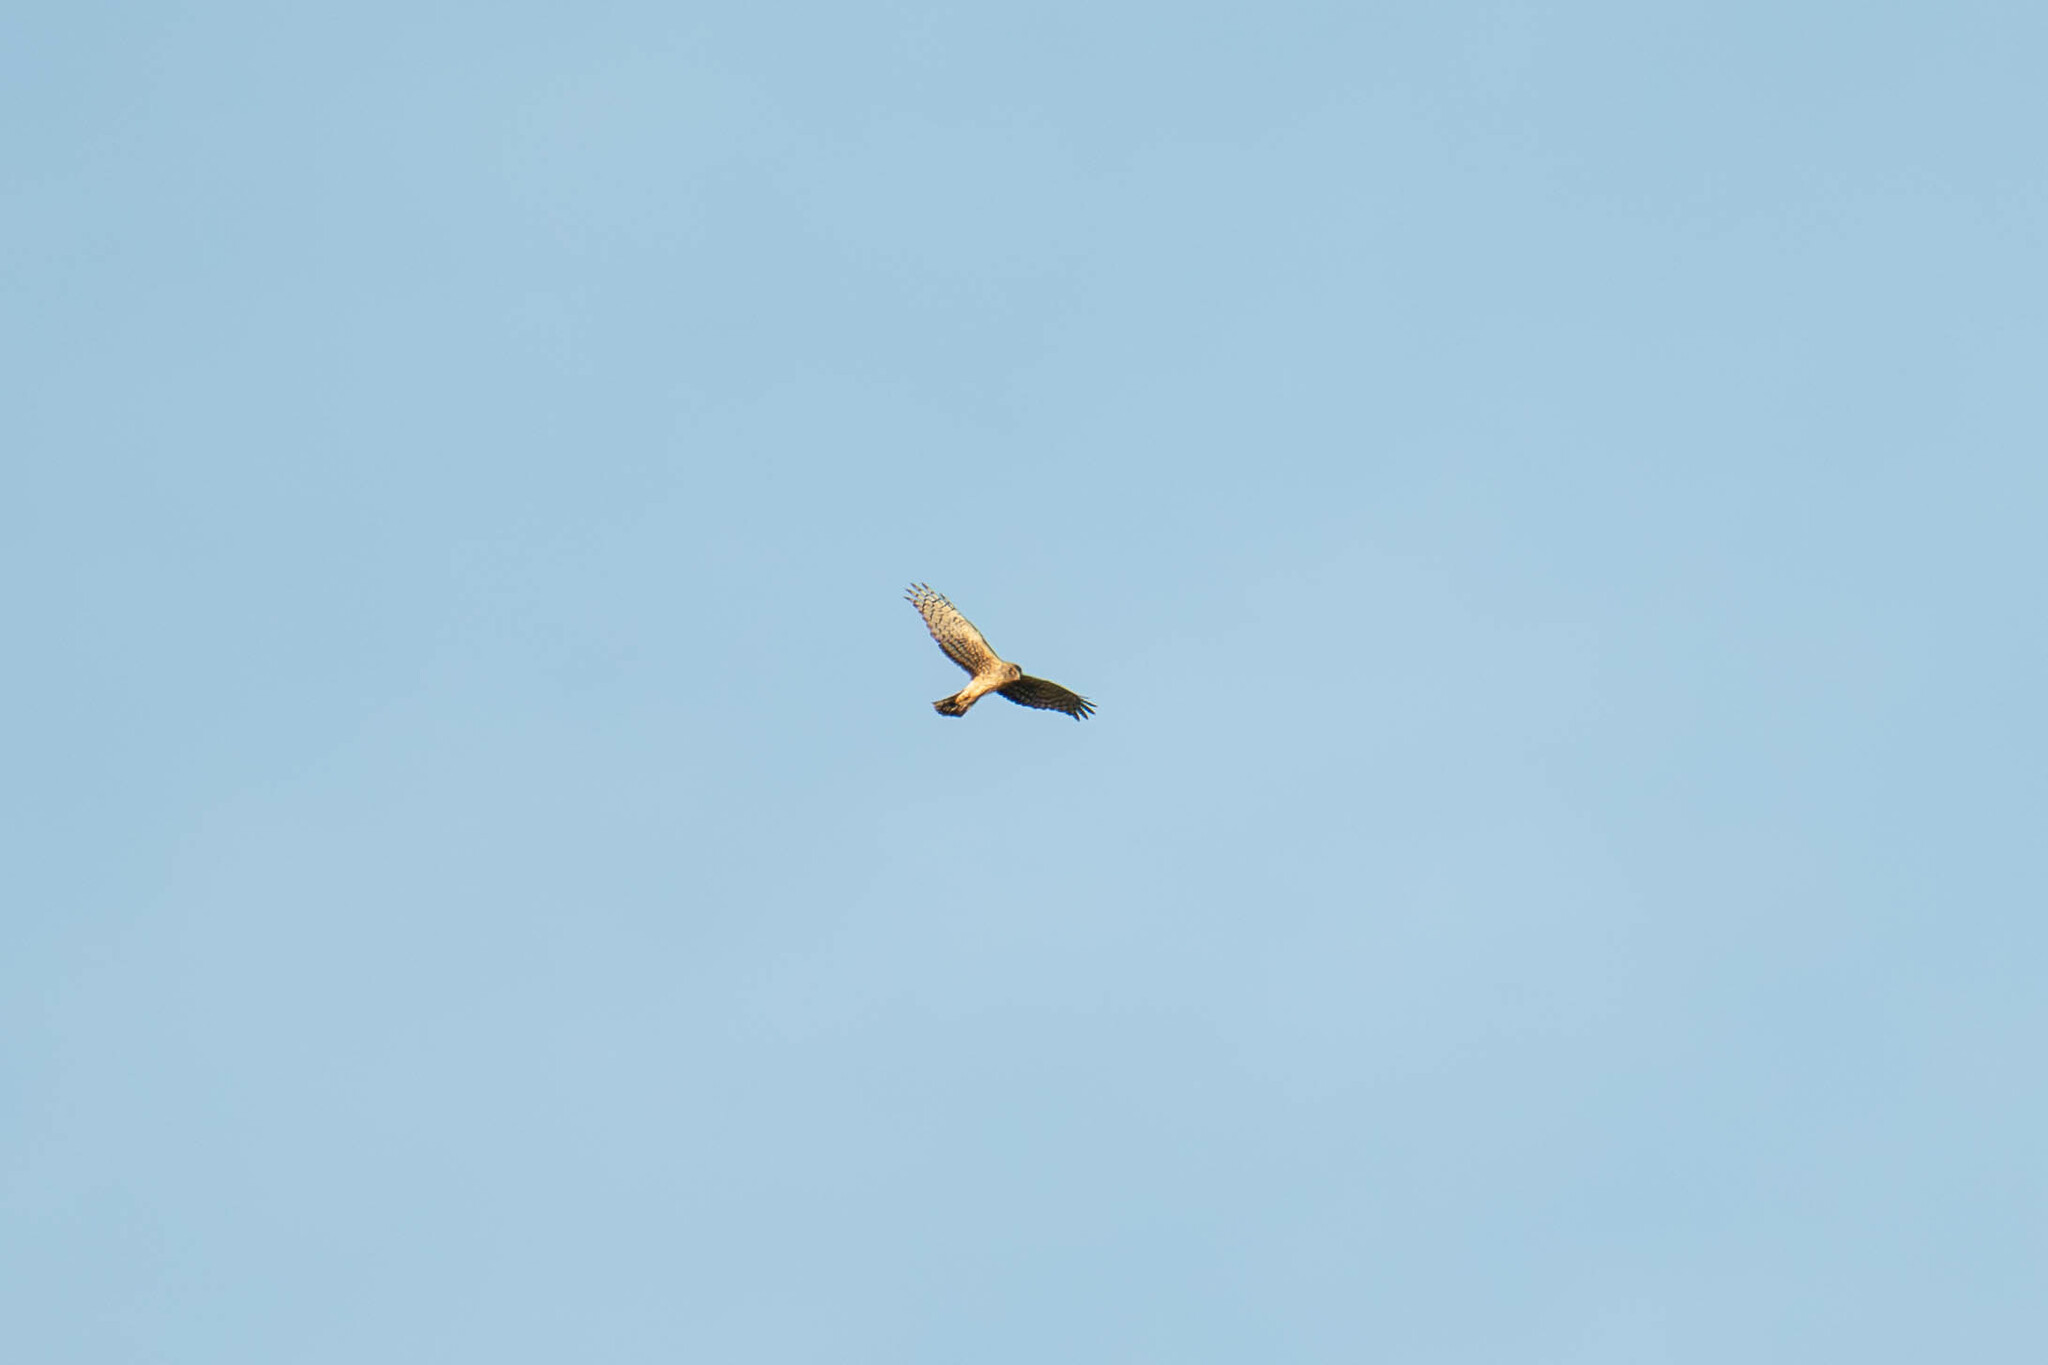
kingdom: Animalia
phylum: Chordata
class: Aves
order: Accipitriformes
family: Accipitridae
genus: Circus
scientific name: Circus cyaneus
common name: Hen harrier
